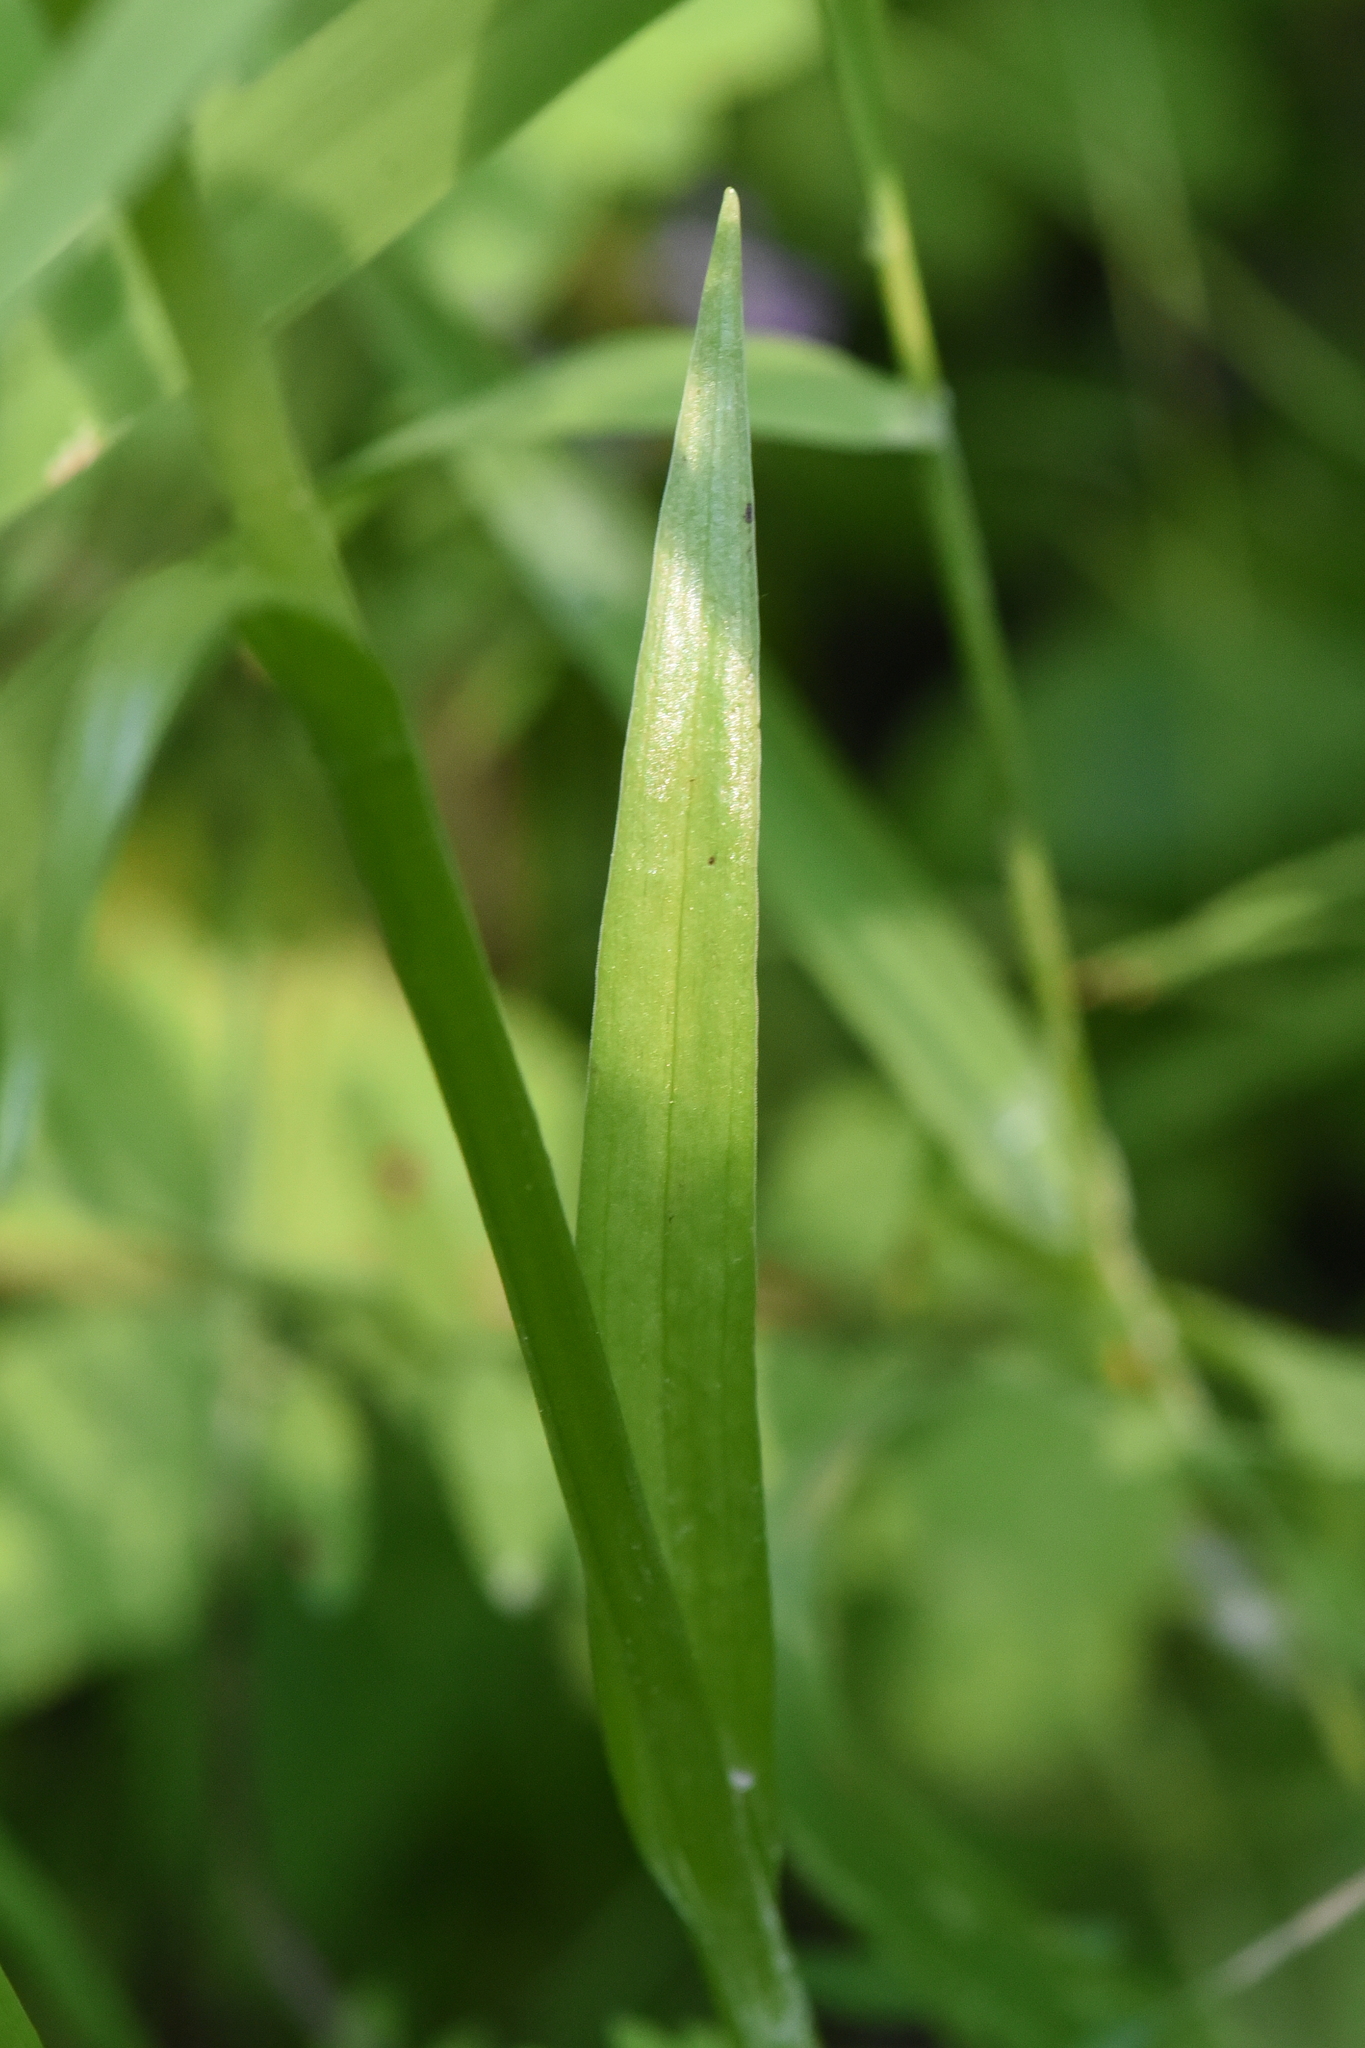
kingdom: Plantae
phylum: Tracheophyta
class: Liliopsida
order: Asparagales
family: Orchidaceae
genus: Platanthera
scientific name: Platanthera dilatata
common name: Bog candles
